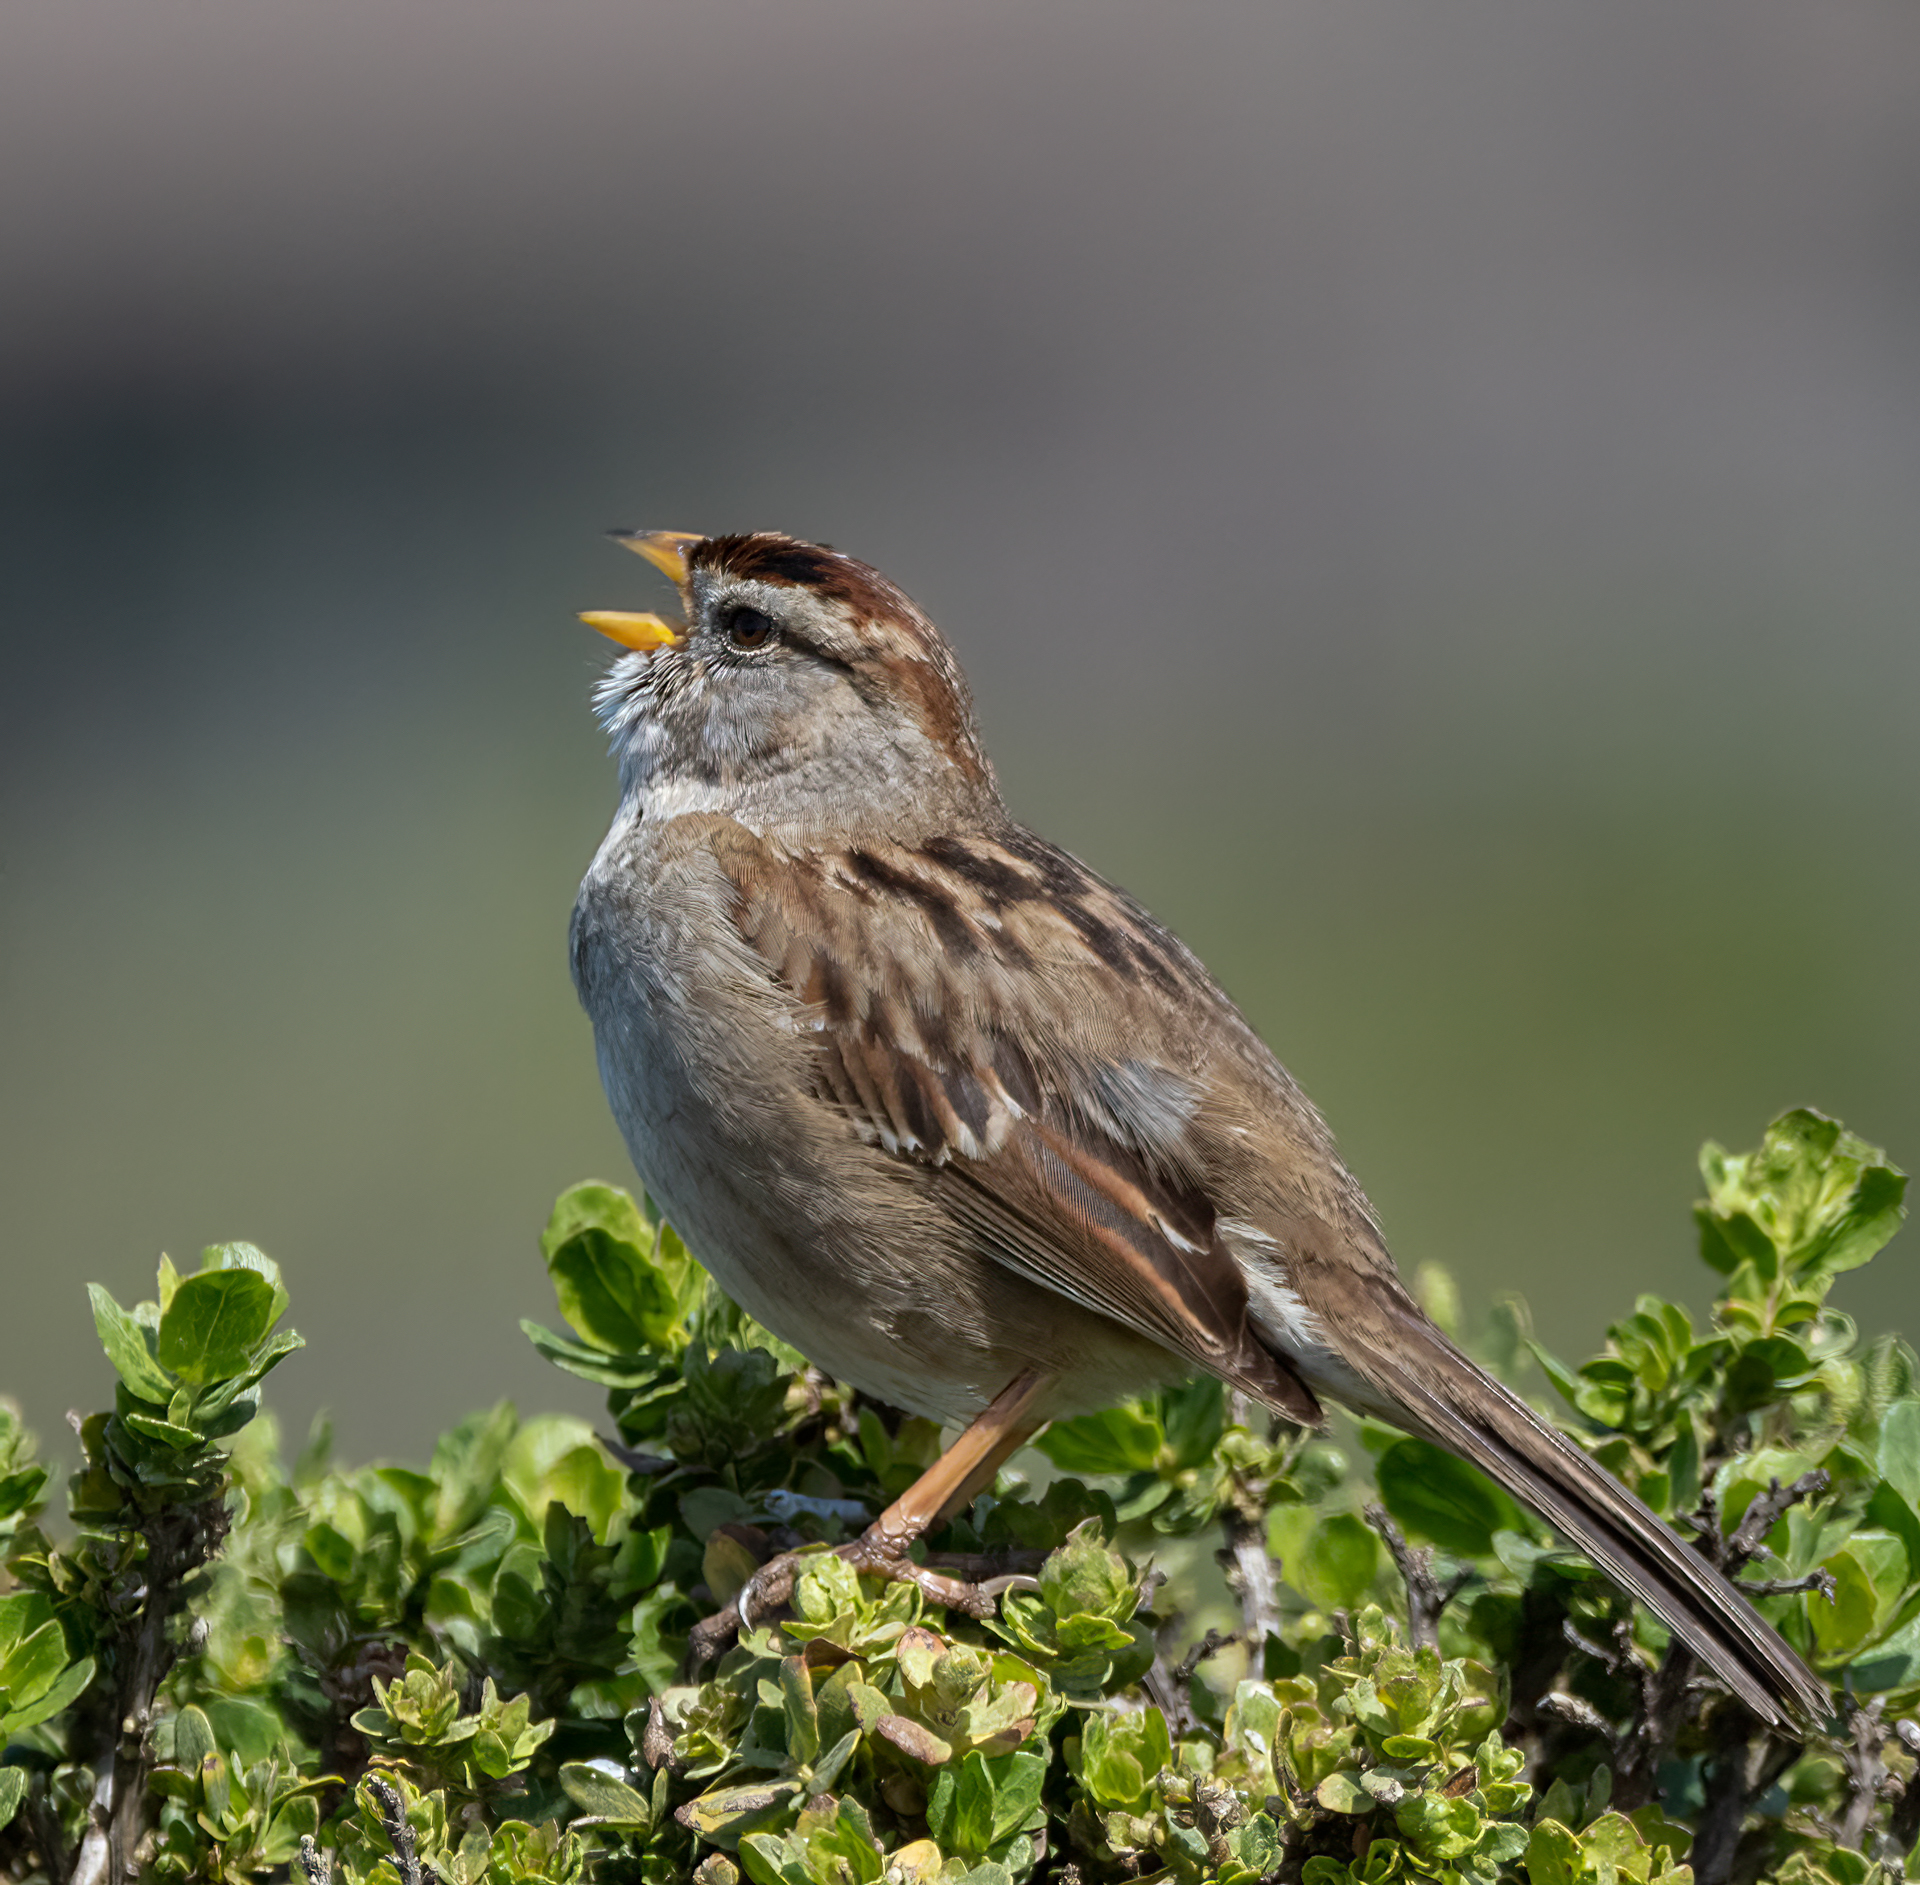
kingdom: Animalia
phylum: Chordata
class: Aves
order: Passeriformes
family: Passerellidae
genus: Zonotrichia
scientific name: Zonotrichia leucophrys
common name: White-crowned sparrow
